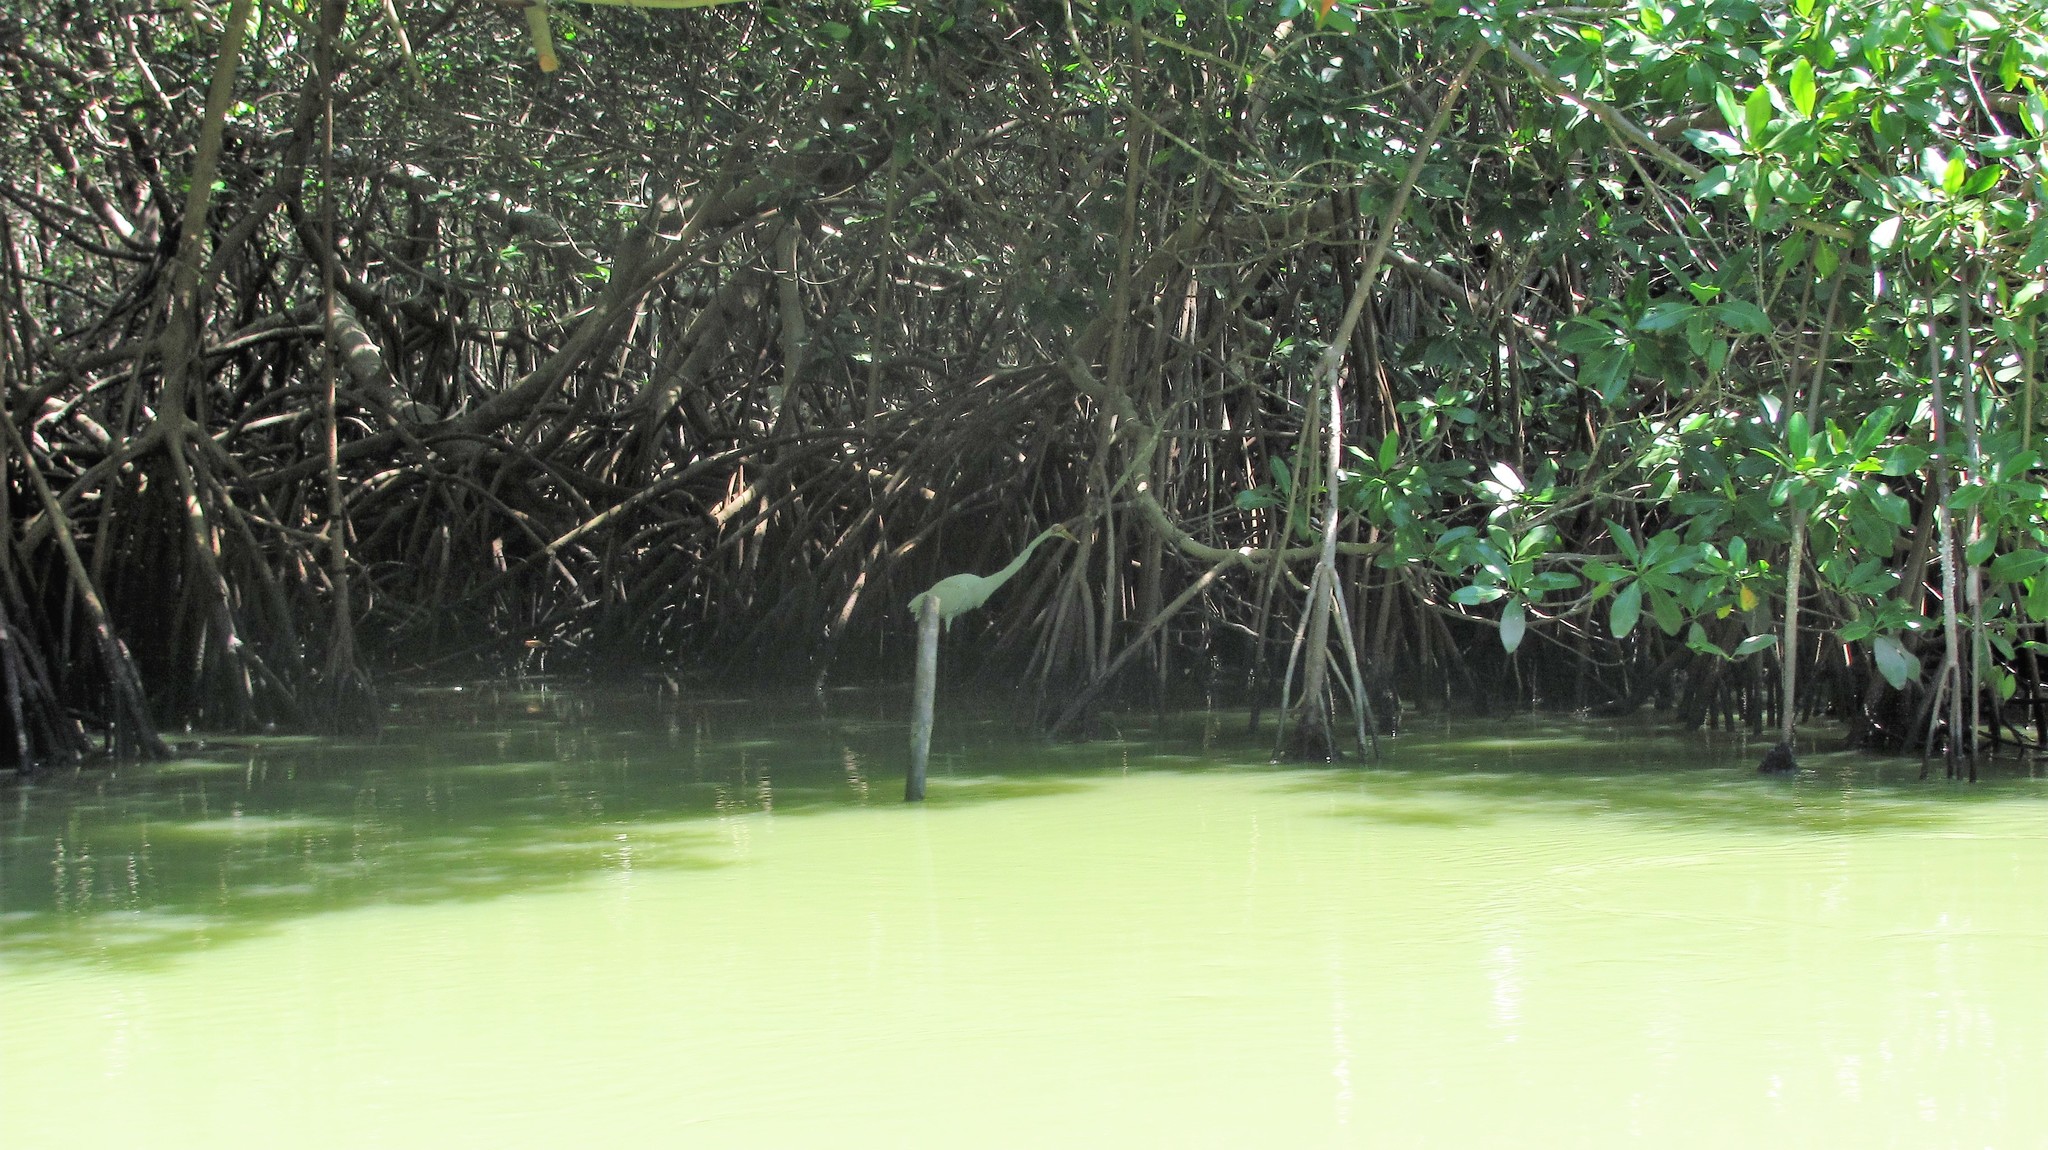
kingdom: Animalia
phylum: Chordata
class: Aves
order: Pelecaniformes
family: Ardeidae
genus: Ardea
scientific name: Ardea alba
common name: Great egret
